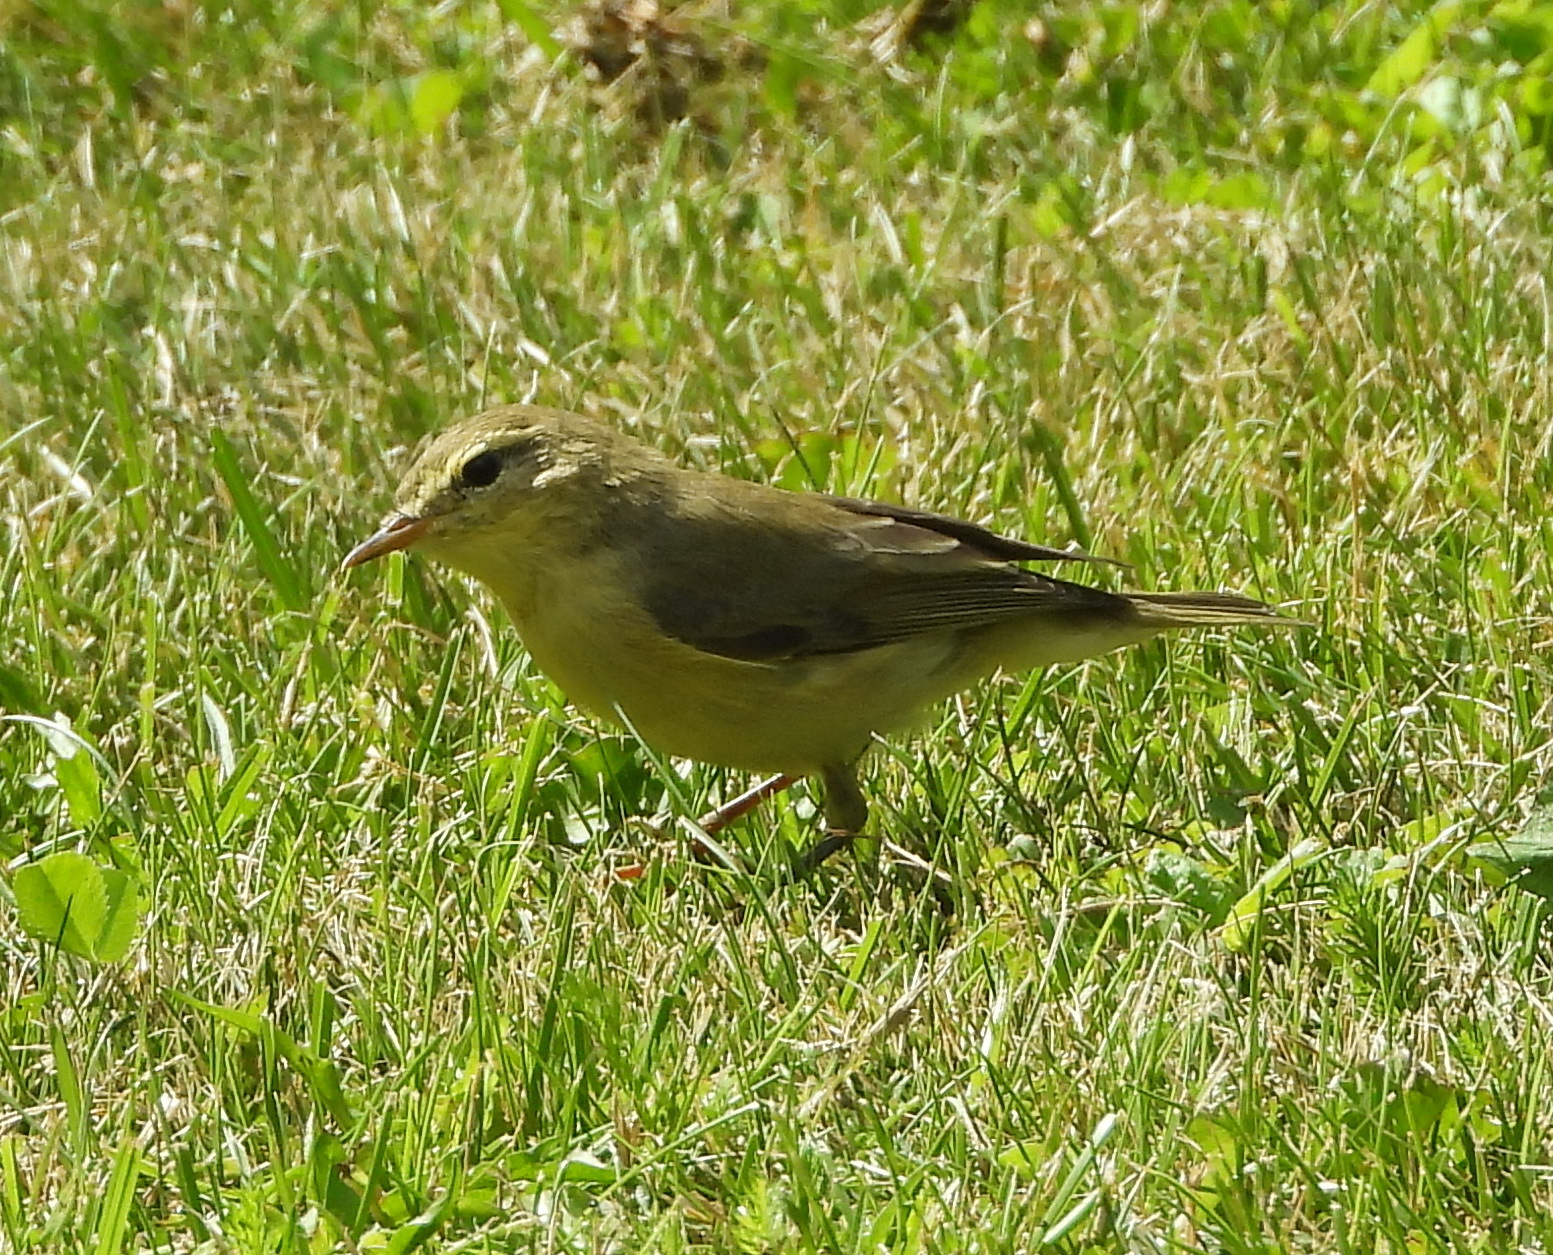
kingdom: Animalia
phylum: Chordata
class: Aves
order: Passeriformes
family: Phylloscopidae
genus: Phylloscopus
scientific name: Phylloscopus trochilus
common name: Willow warbler
